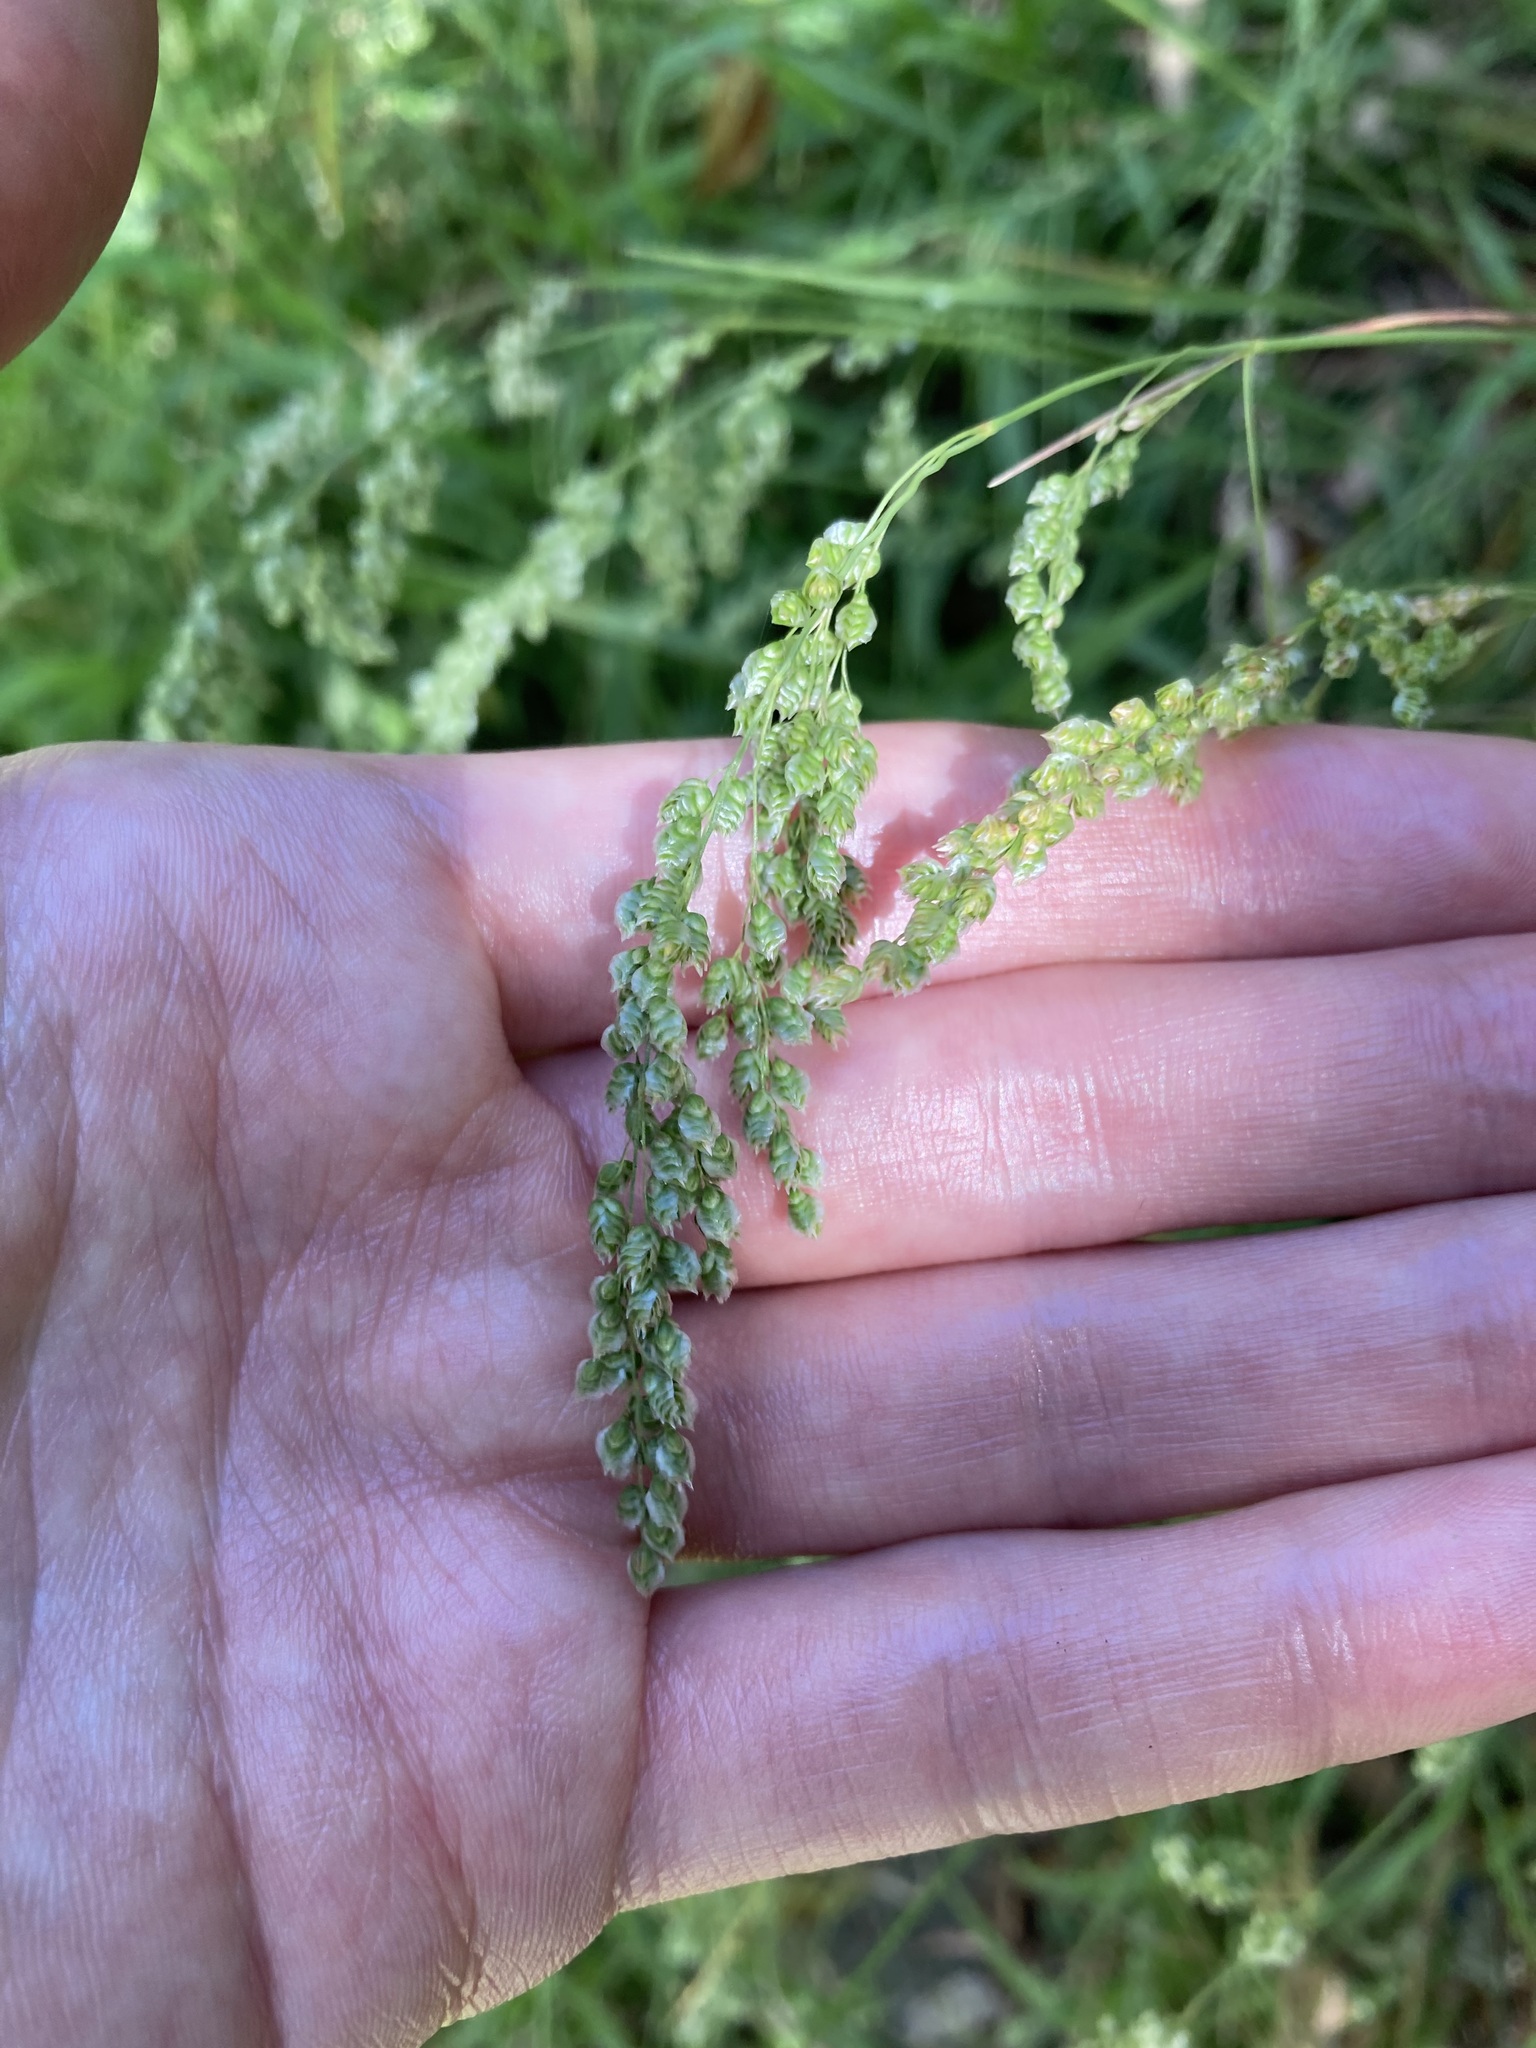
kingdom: Plantae
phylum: Tracheophyta
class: Liliopsida
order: Poales
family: Poaceae
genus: Chascolytrum
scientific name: Chascolytrum subaristatum
